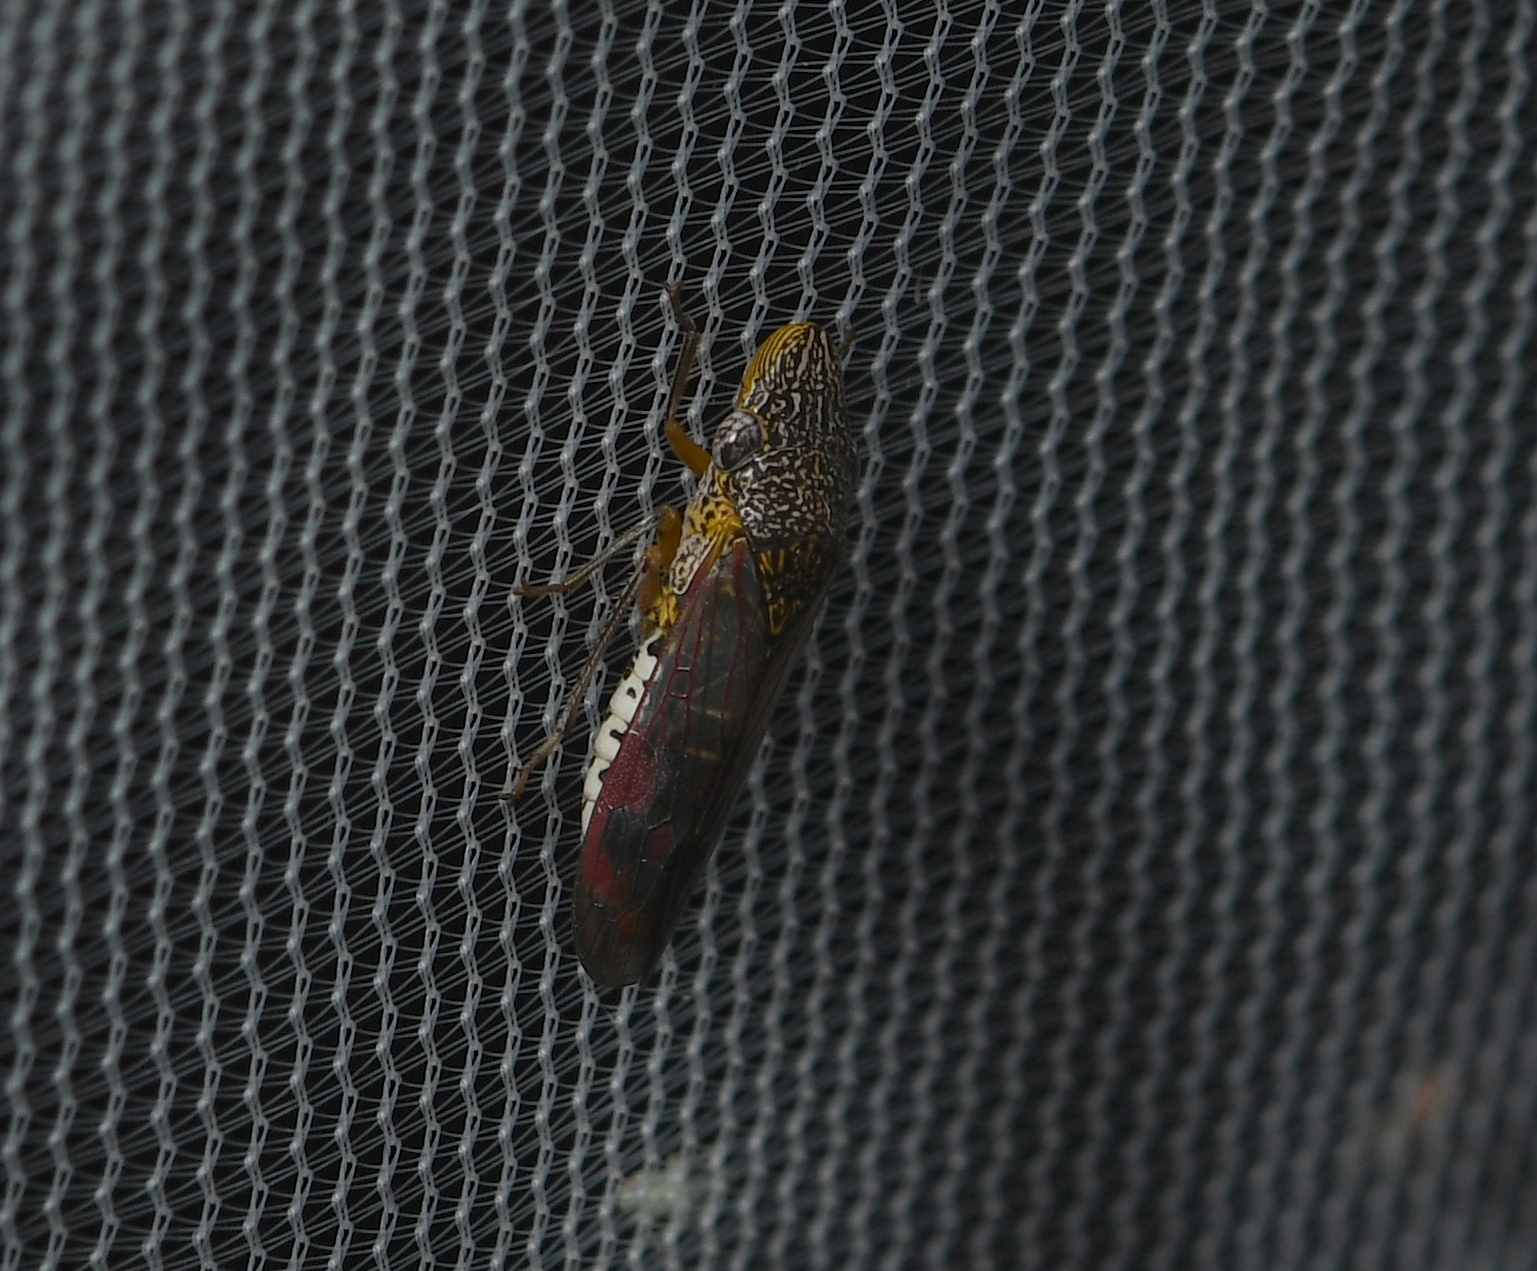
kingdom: Animalia
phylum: Arthropoda
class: Insecta
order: Hemiptera
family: Cicadellidae
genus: Homalodisca
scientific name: Homalodisca liturata
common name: Lacertate sharpshooter
